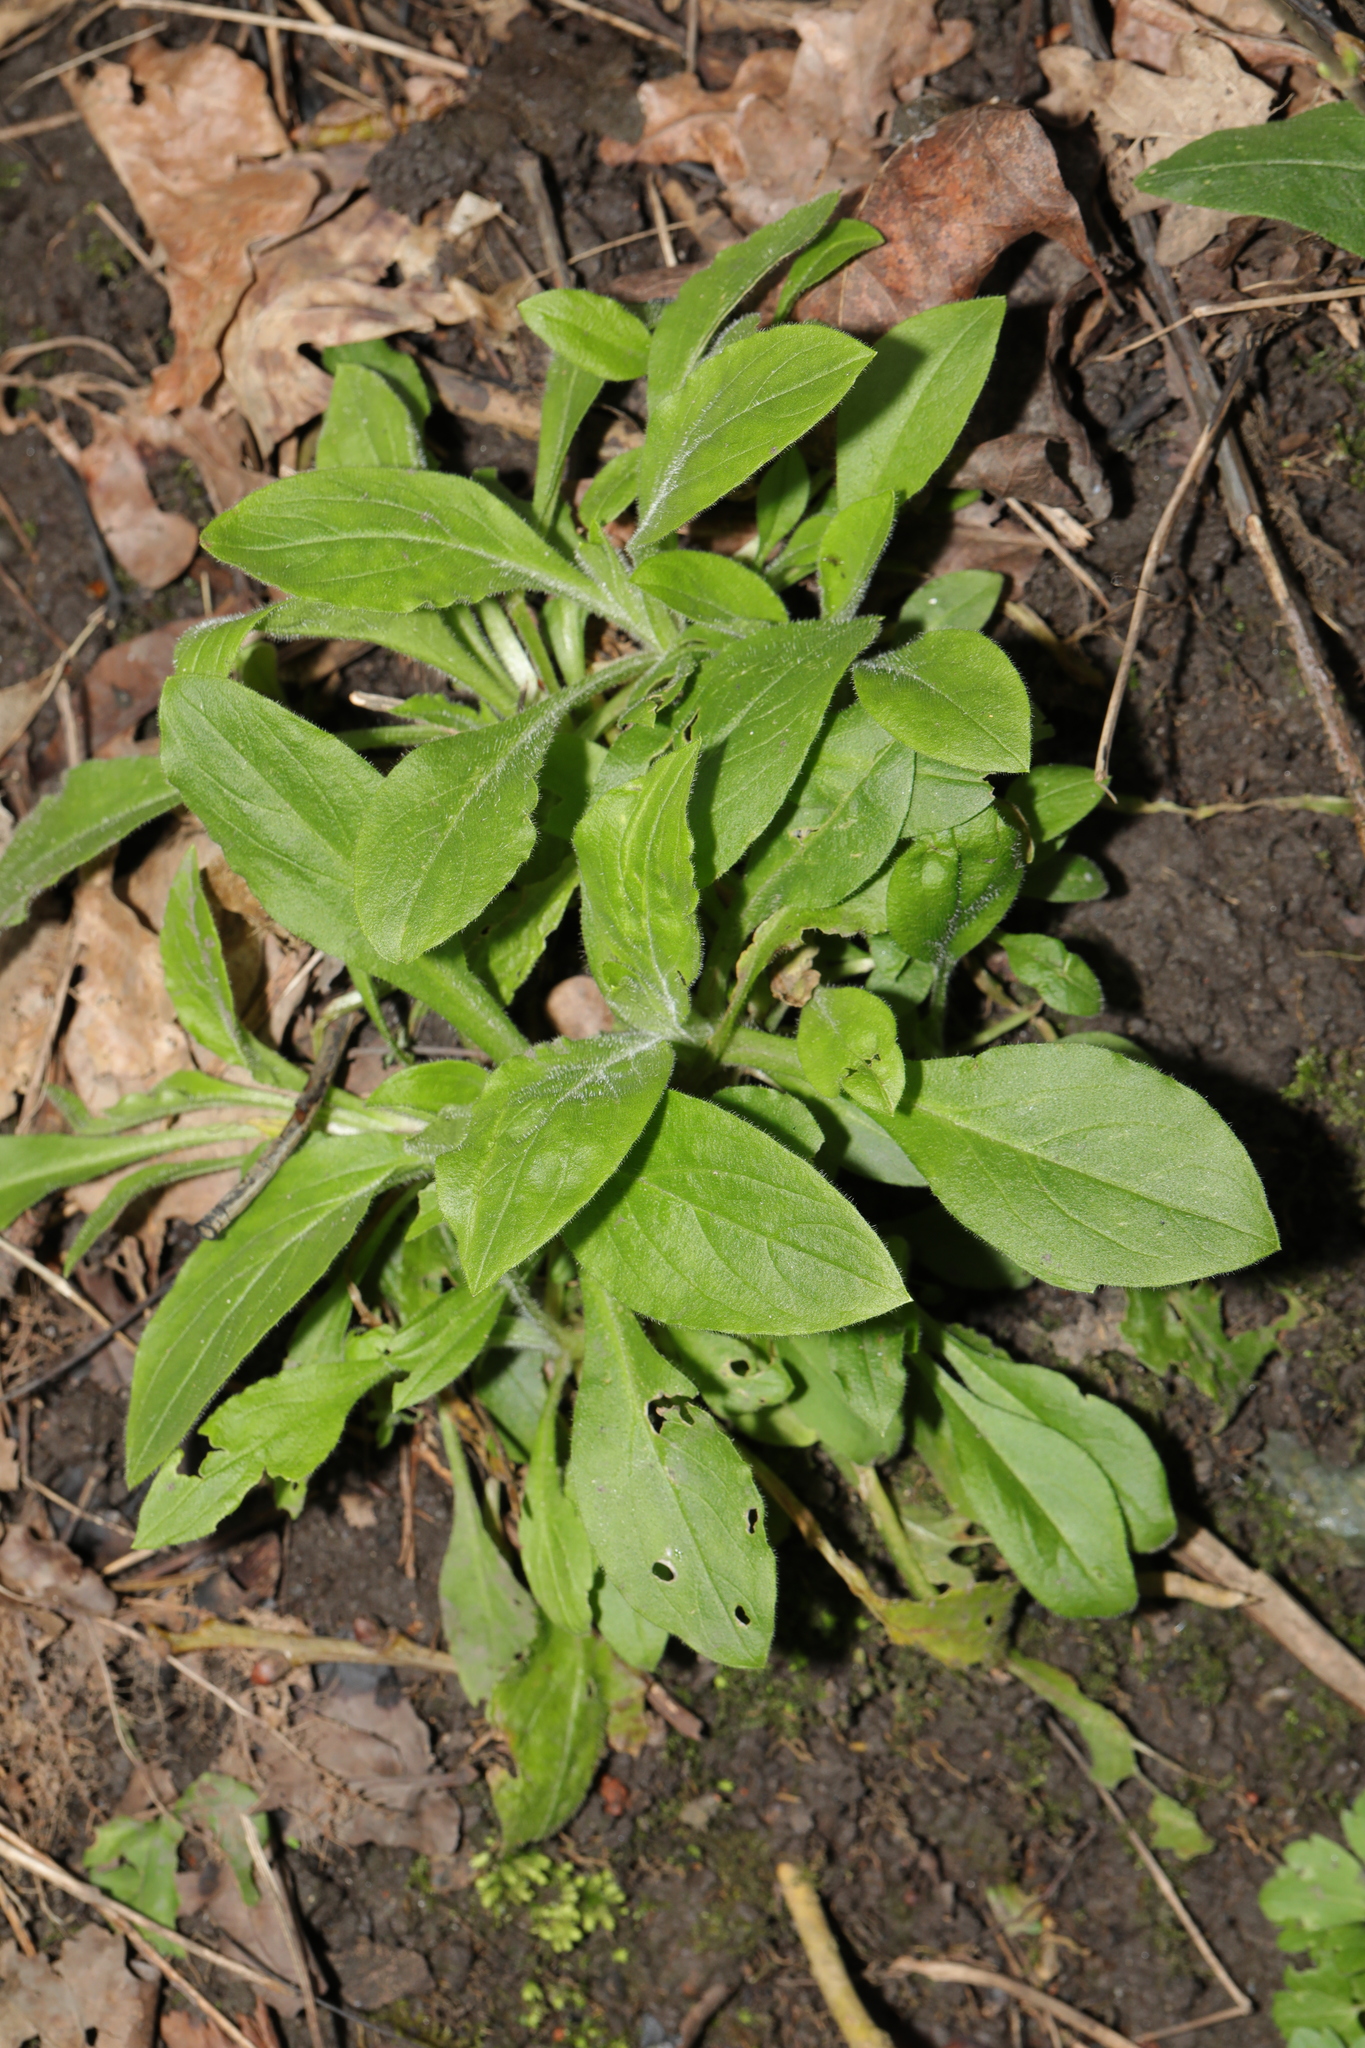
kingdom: Plantae
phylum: Tracheophyta
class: Magnoliopsida
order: Caryophyllales
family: Caryophyllaceae
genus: Silene
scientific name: Silene dioica
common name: Red campion
